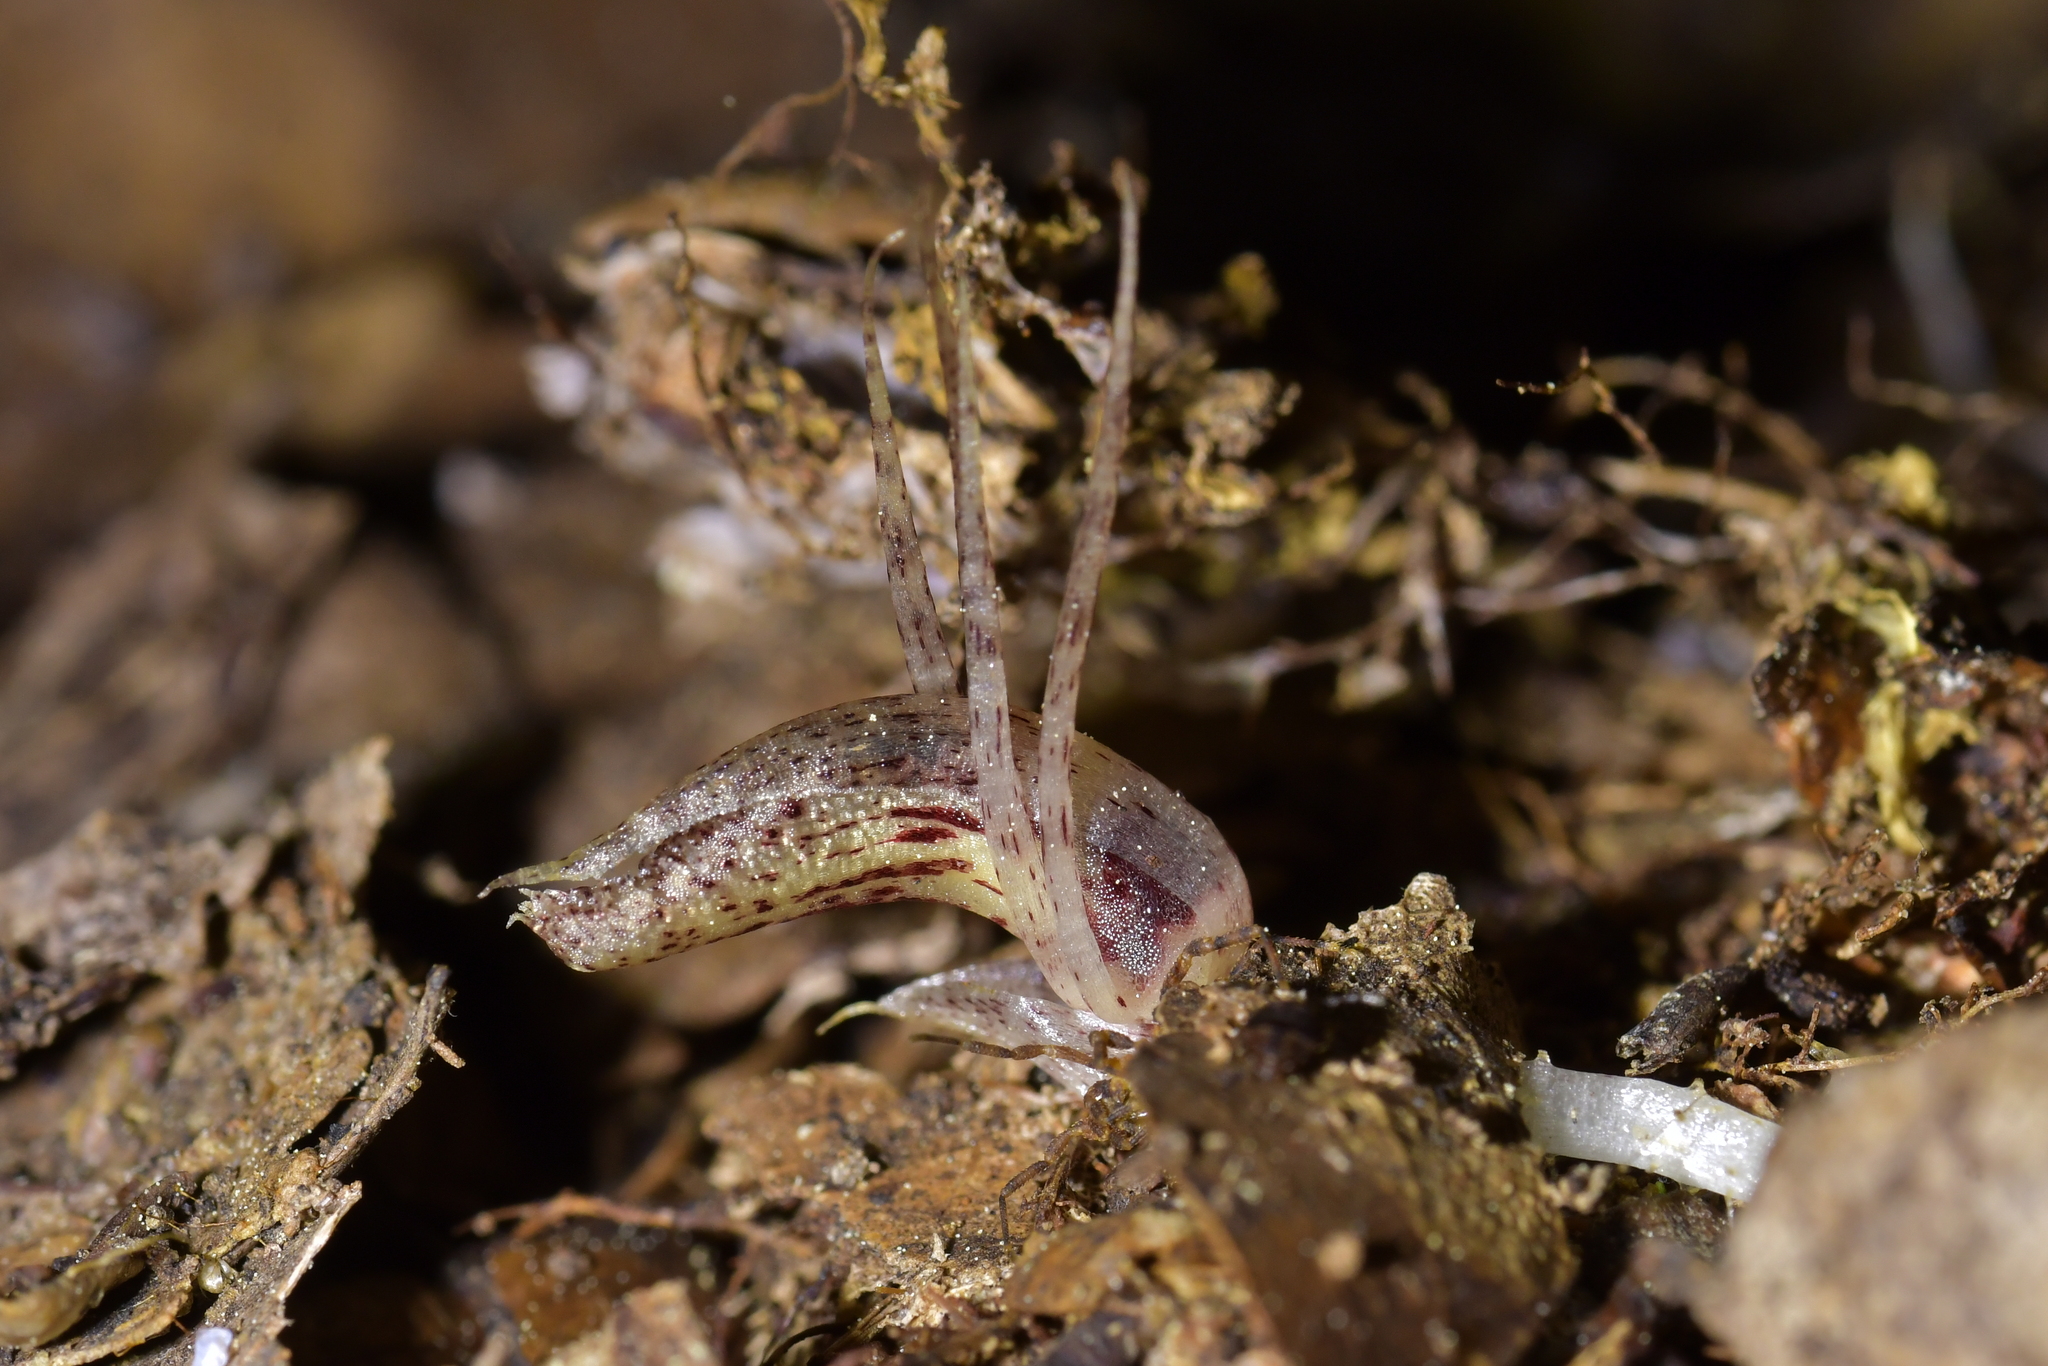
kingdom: Plantae
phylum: Tracheophyta
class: Liliopsida
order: Asparagales
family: Orchidaceae
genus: Corybas
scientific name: Corybas cryptanthus
